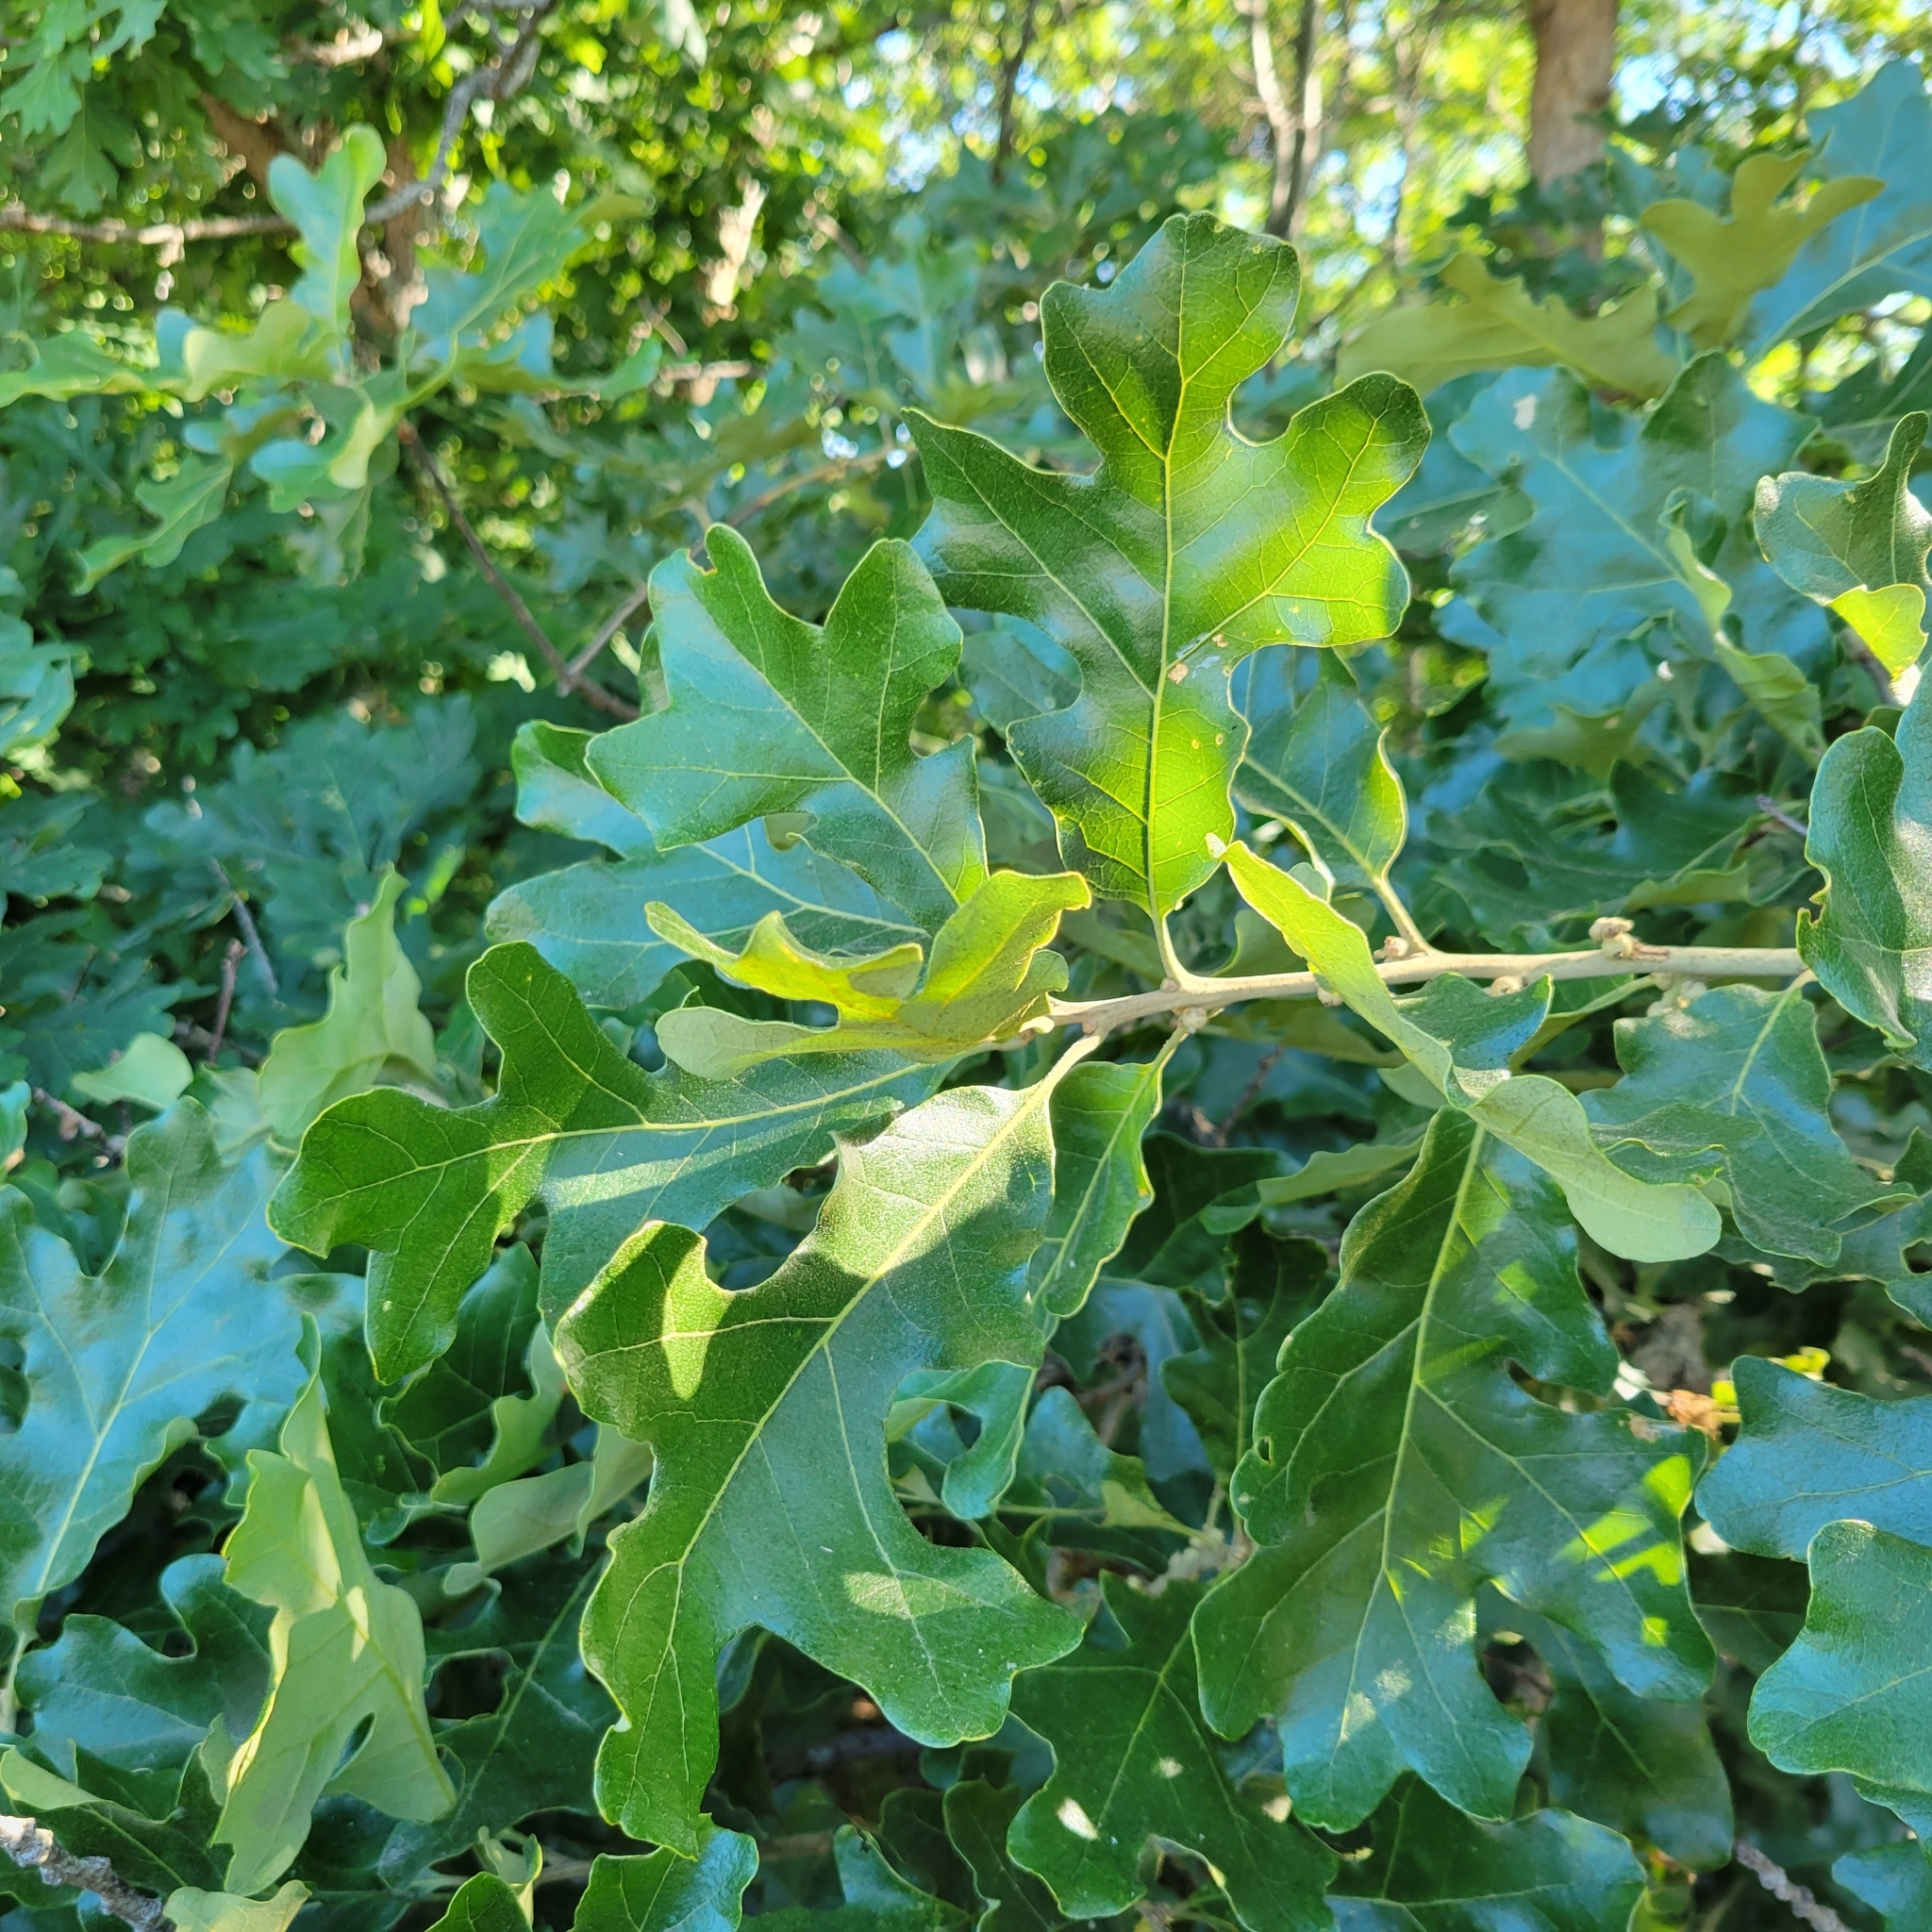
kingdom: Plantae
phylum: Tracheophyta
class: Magnoliopsida
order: Fagales
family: Fagaceae
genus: Quercus
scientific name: Quercus stellata
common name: Post oak
